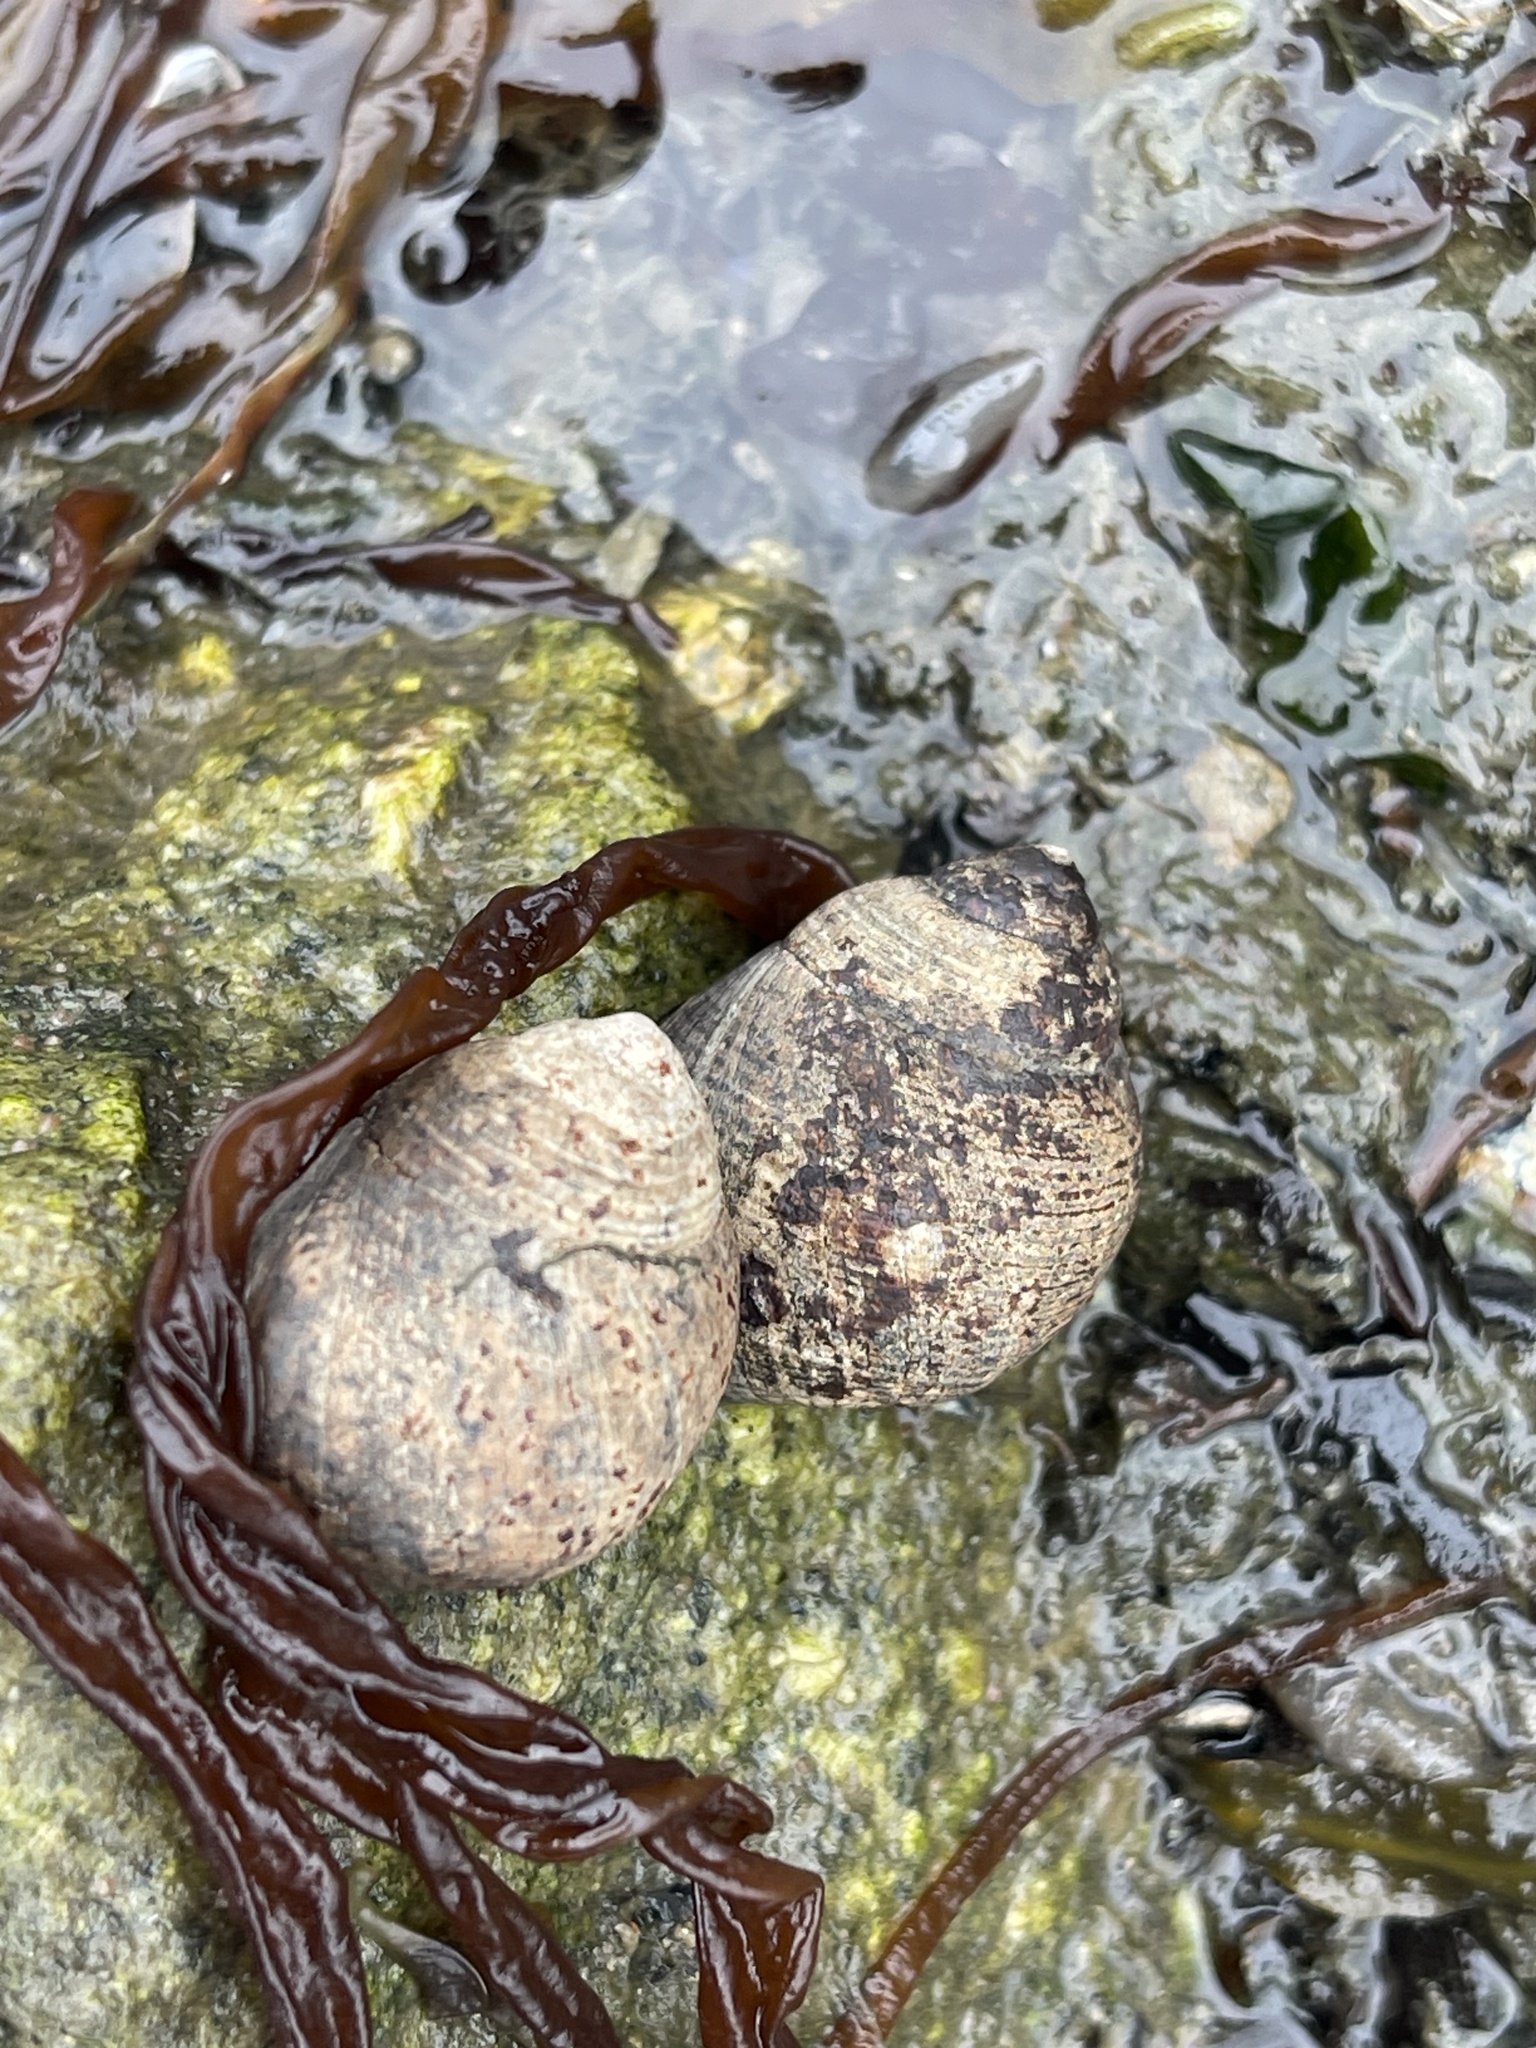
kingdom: Animalia
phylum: Mollusca
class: Gastropoda
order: Littorinimorpha
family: Littorinidae
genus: Littorina
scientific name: Littorina littorea
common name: Common periwinkle
